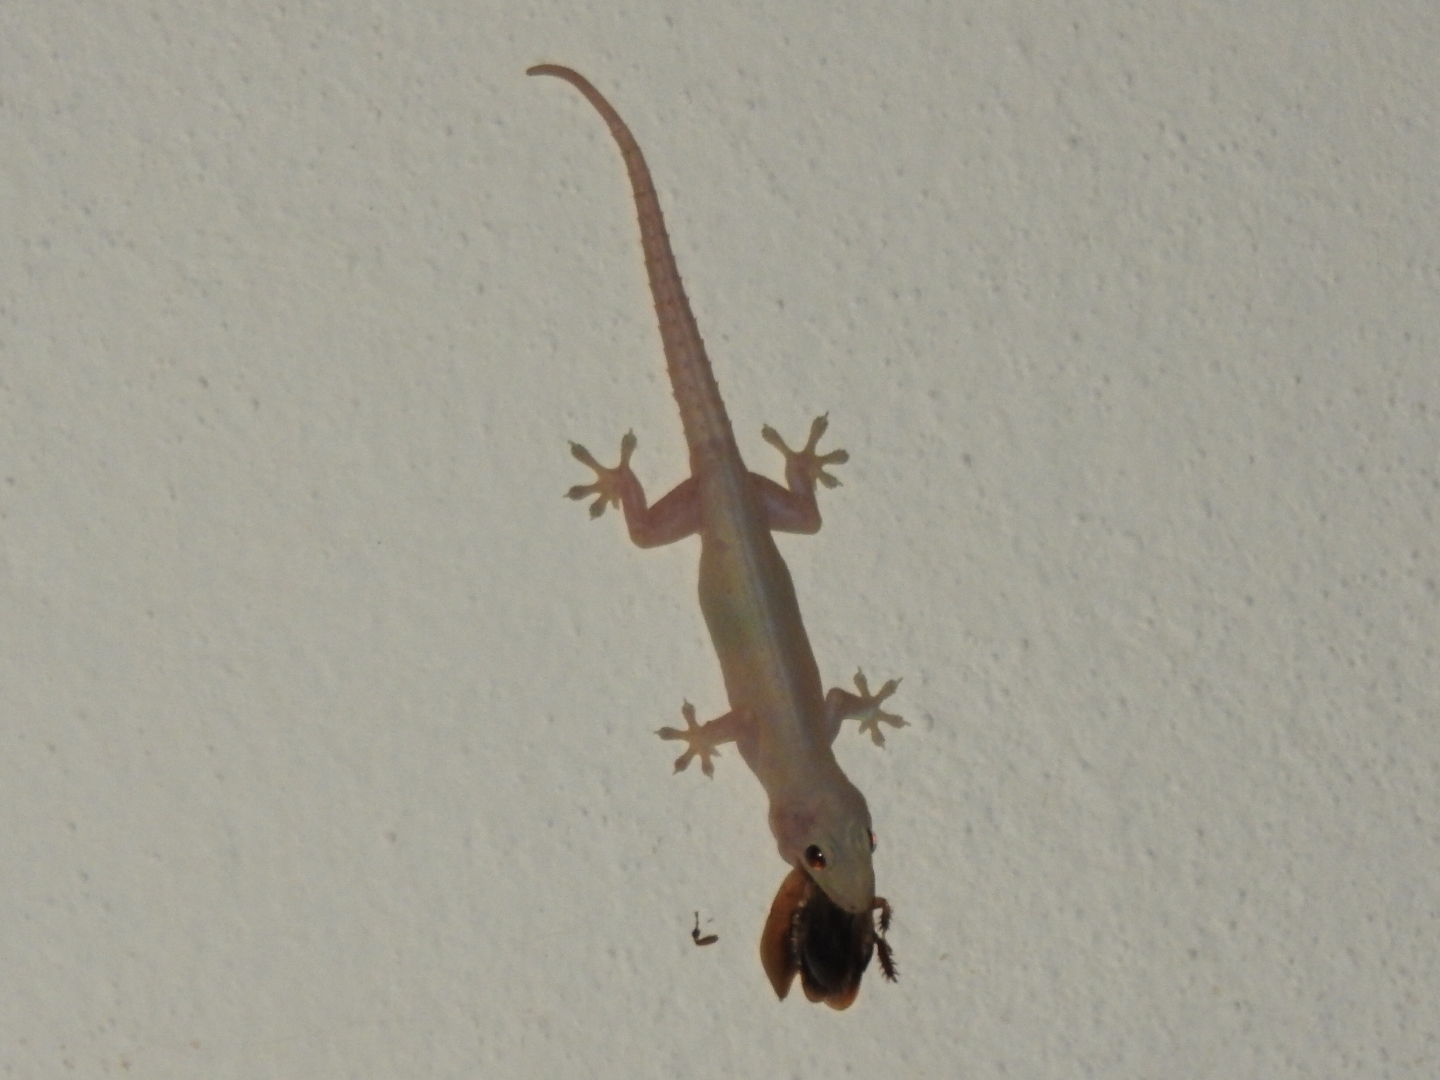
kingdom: Animalia
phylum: Chordata
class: Squamata
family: Gekkonidae
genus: Hemidactylus
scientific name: Hemidactylus frenatus
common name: Common house gecko
